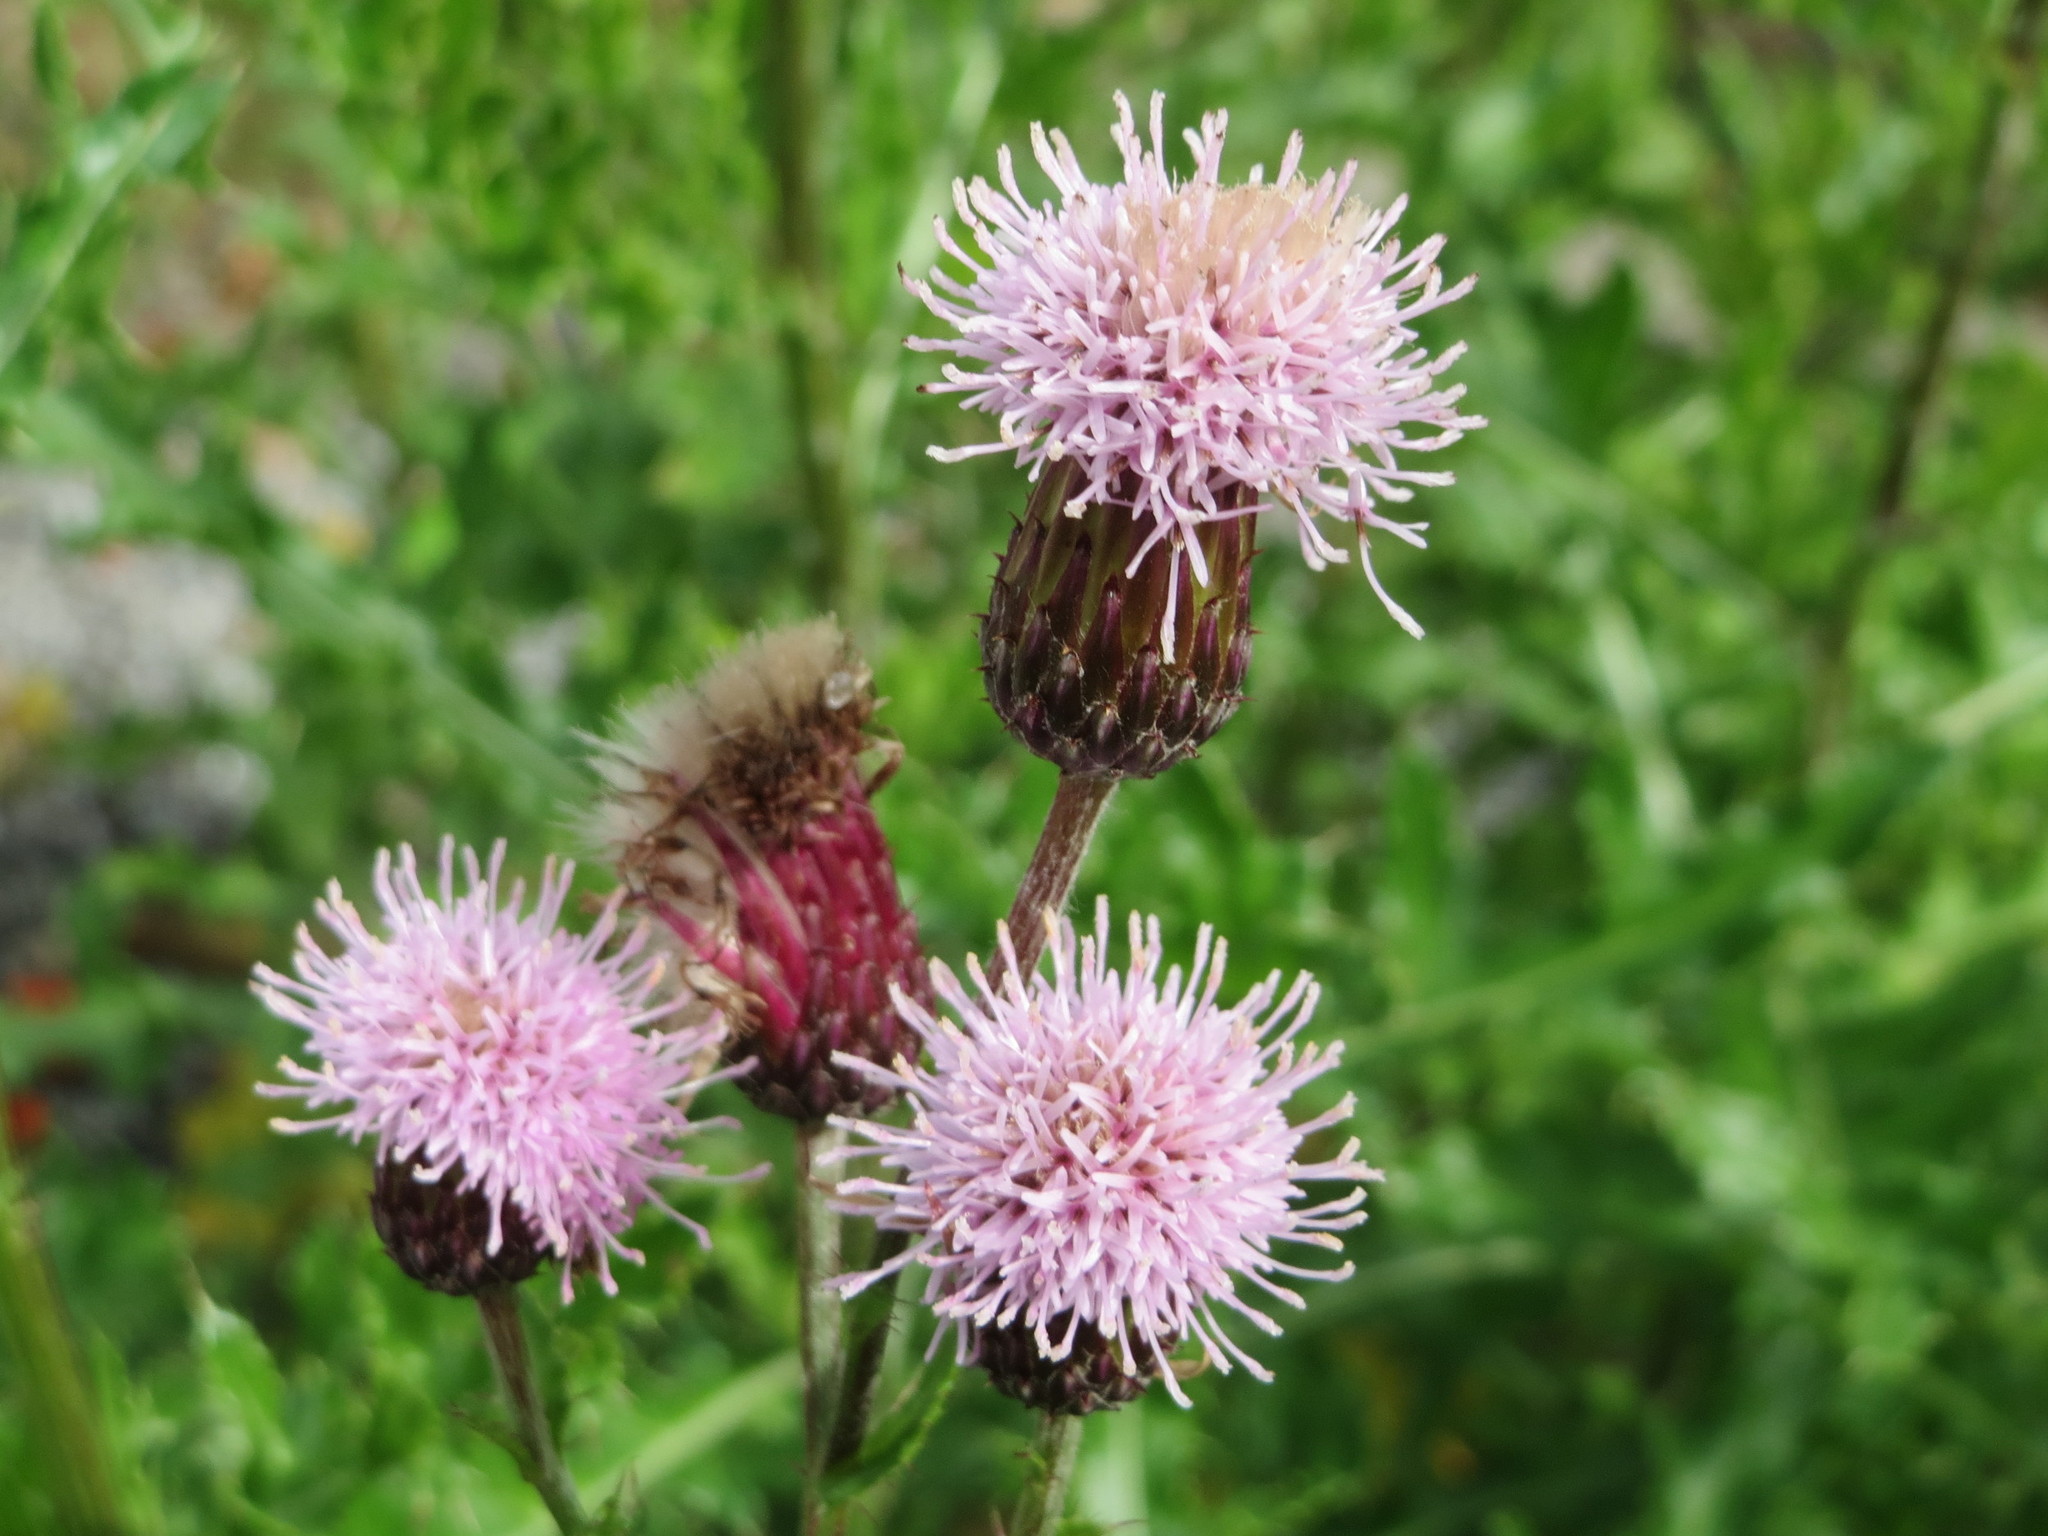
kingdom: Plantae
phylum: Tracheophyta
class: Magnoliopsida
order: Asterales
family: Asteraceae
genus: Cirsium
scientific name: Cirsium arvense
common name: Creeping thistle
